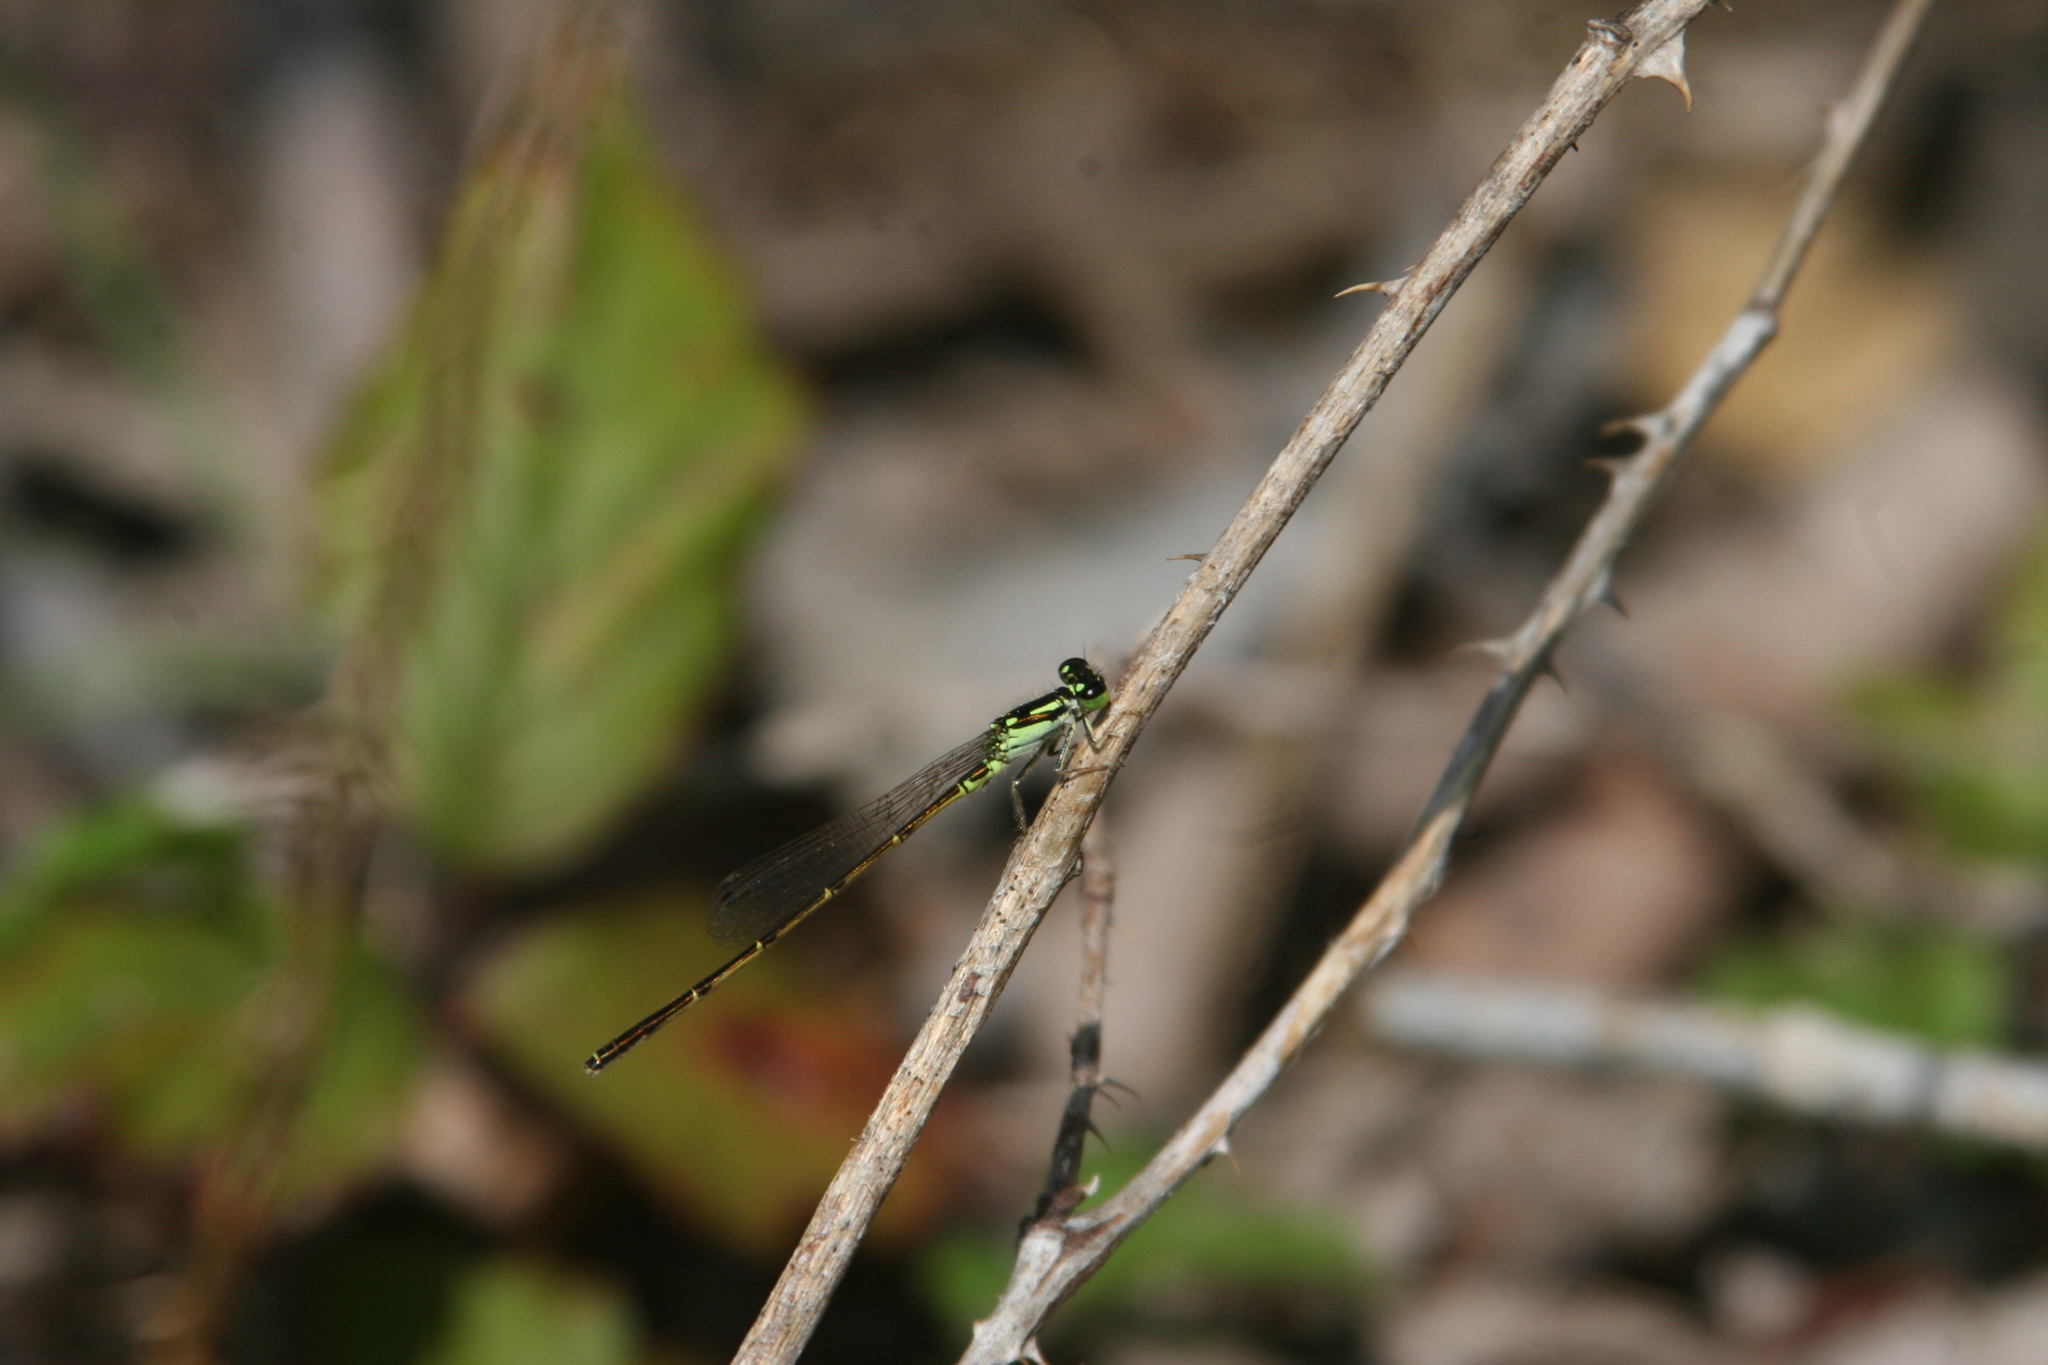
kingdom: Animalia
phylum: Arthropoda
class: Insecta
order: Odonata
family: Coenagrionidae
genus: Ischnura
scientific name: Ischnura posita
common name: Fragile forktail
